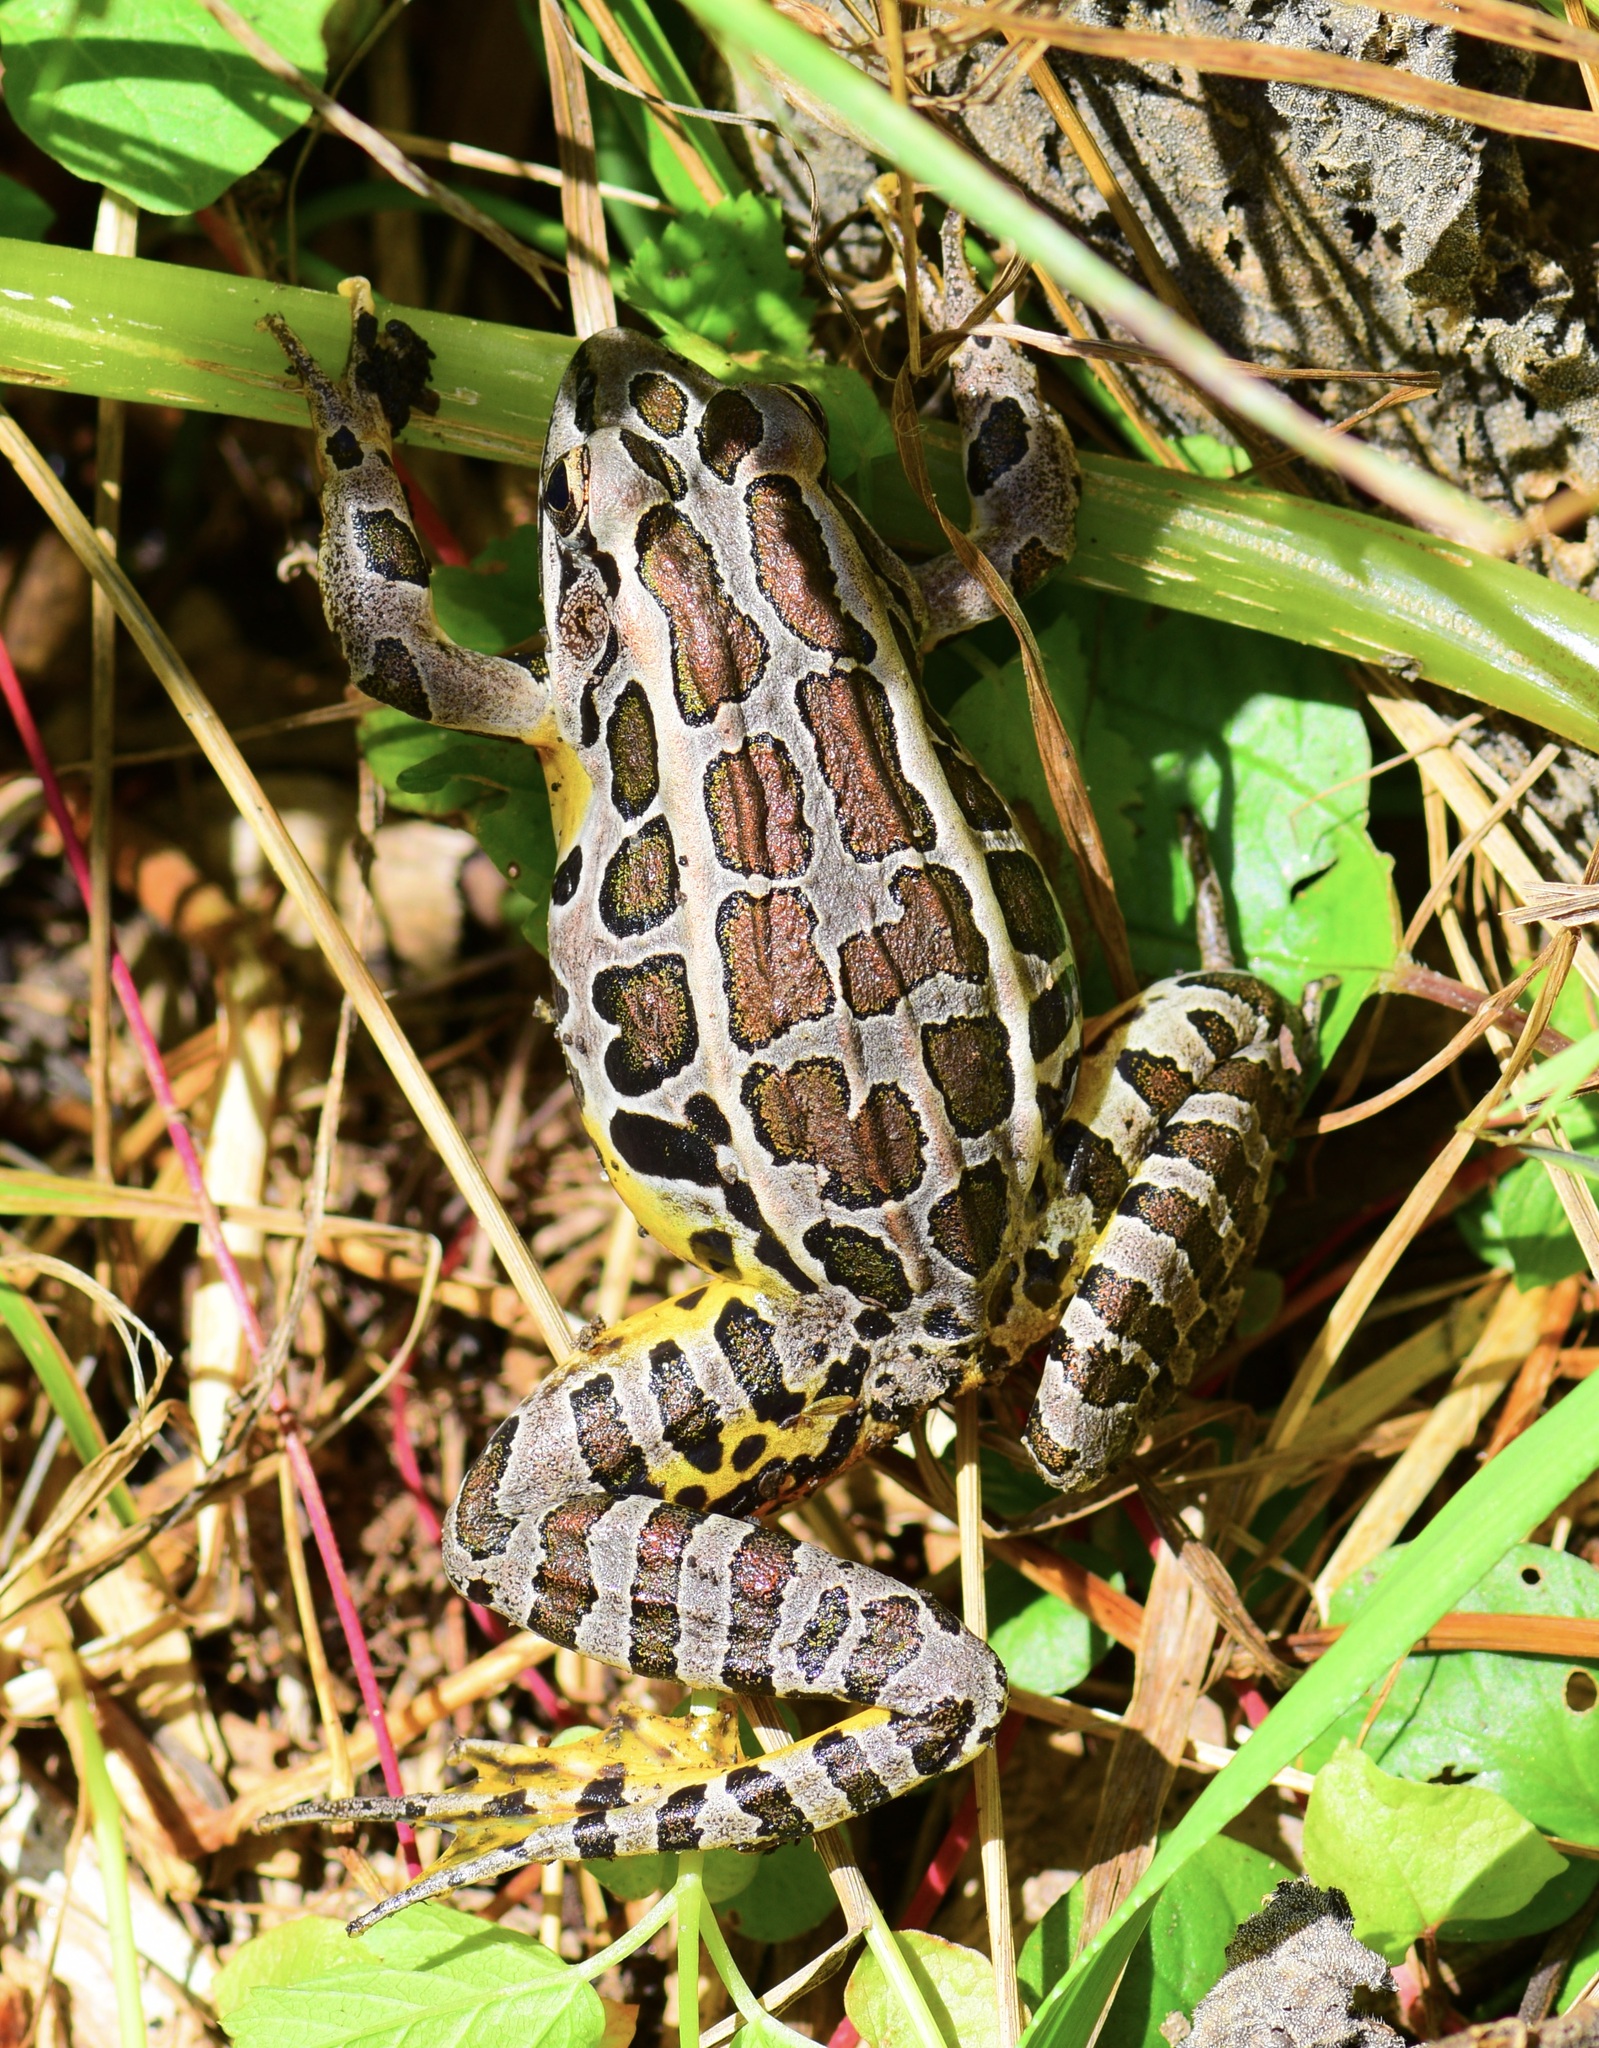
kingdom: Animalia
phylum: Chordata
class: Amphibia
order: Anura
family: Ranidae
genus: Lithobates
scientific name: Lithobates palustris
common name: Pickerel frog
